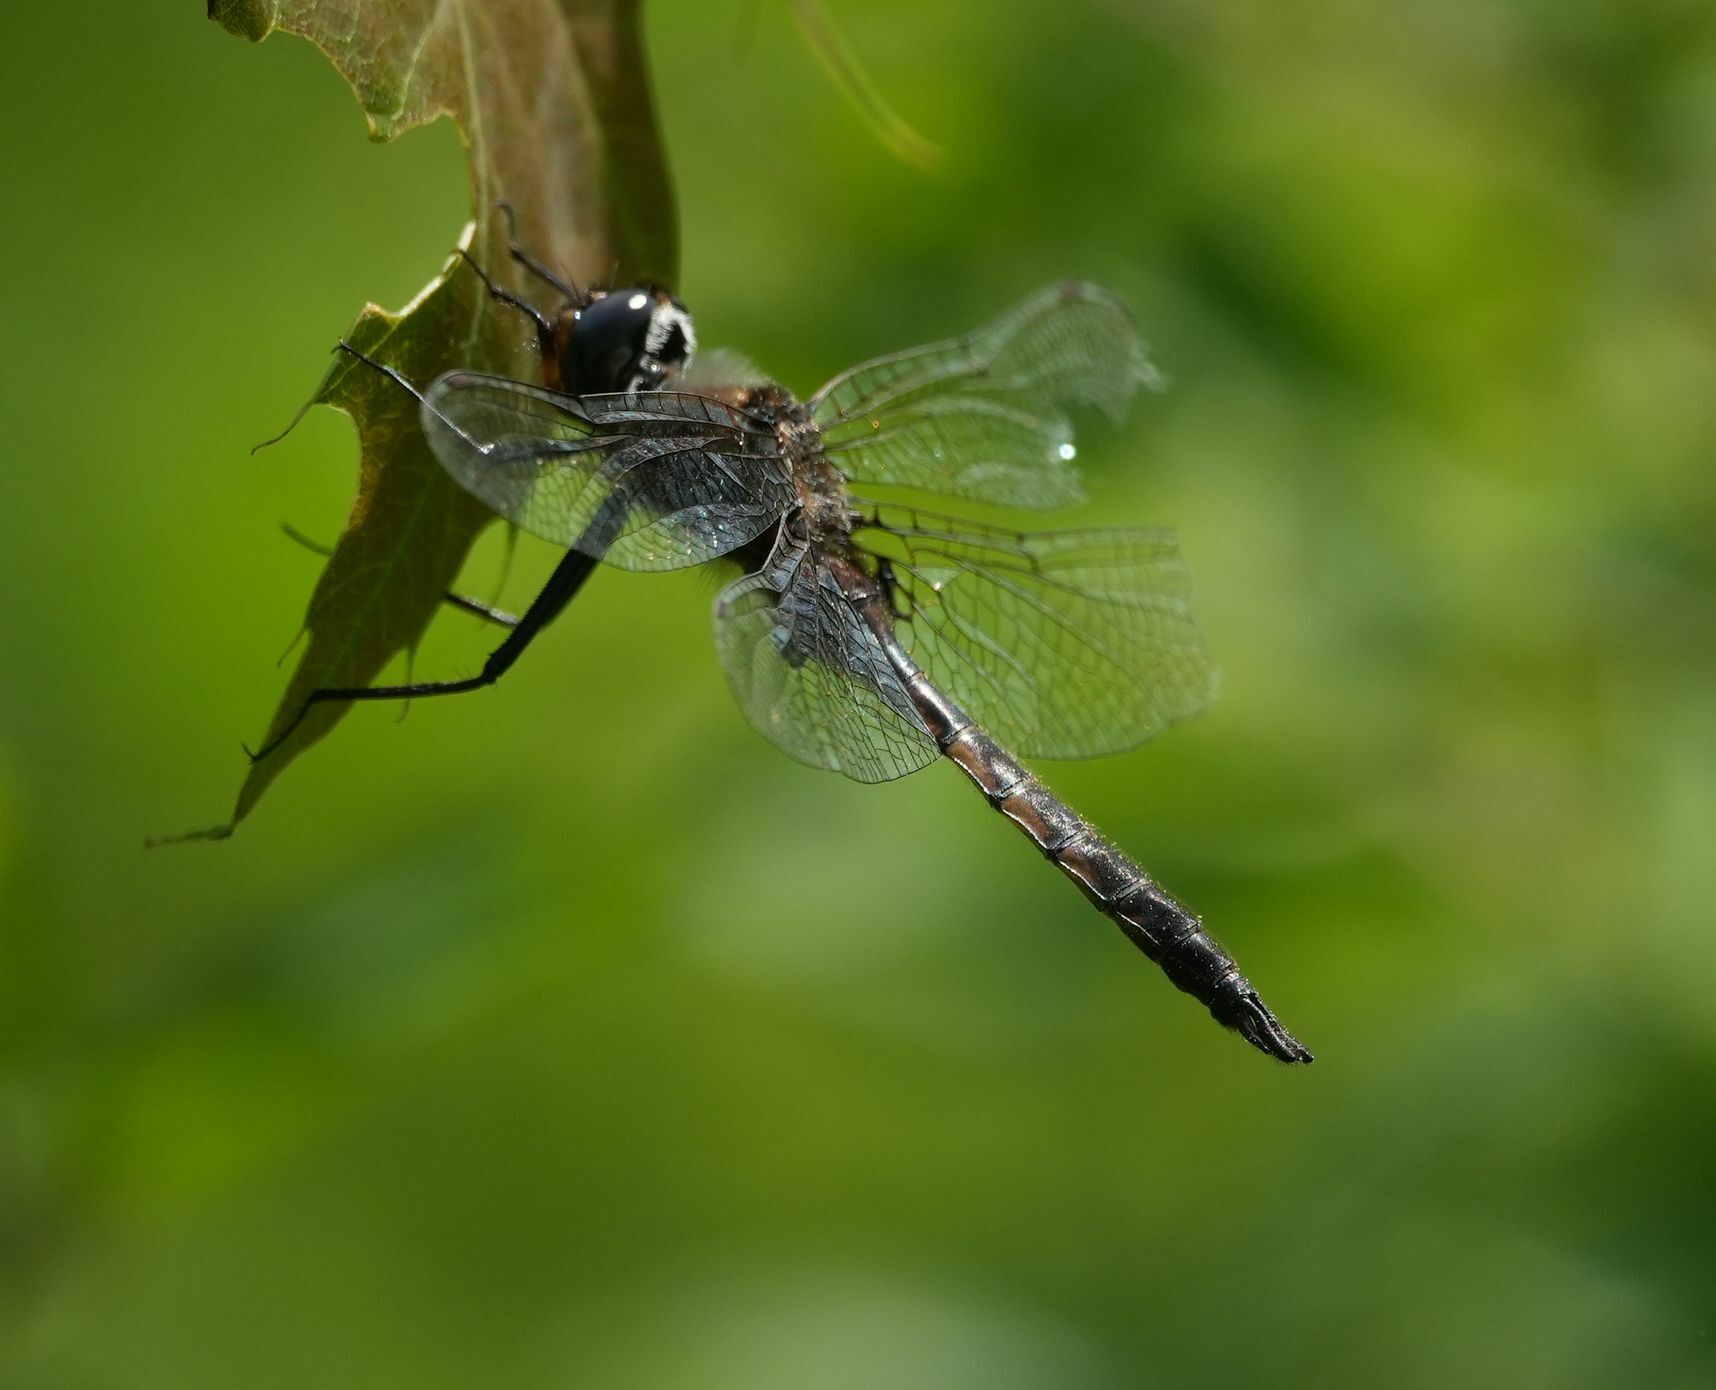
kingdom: Animalia
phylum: Arthropoda
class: Insecta
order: Odonata
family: Corduliidae
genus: Epitheca
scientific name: Epitheca spinigera
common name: Spiny baskettail
